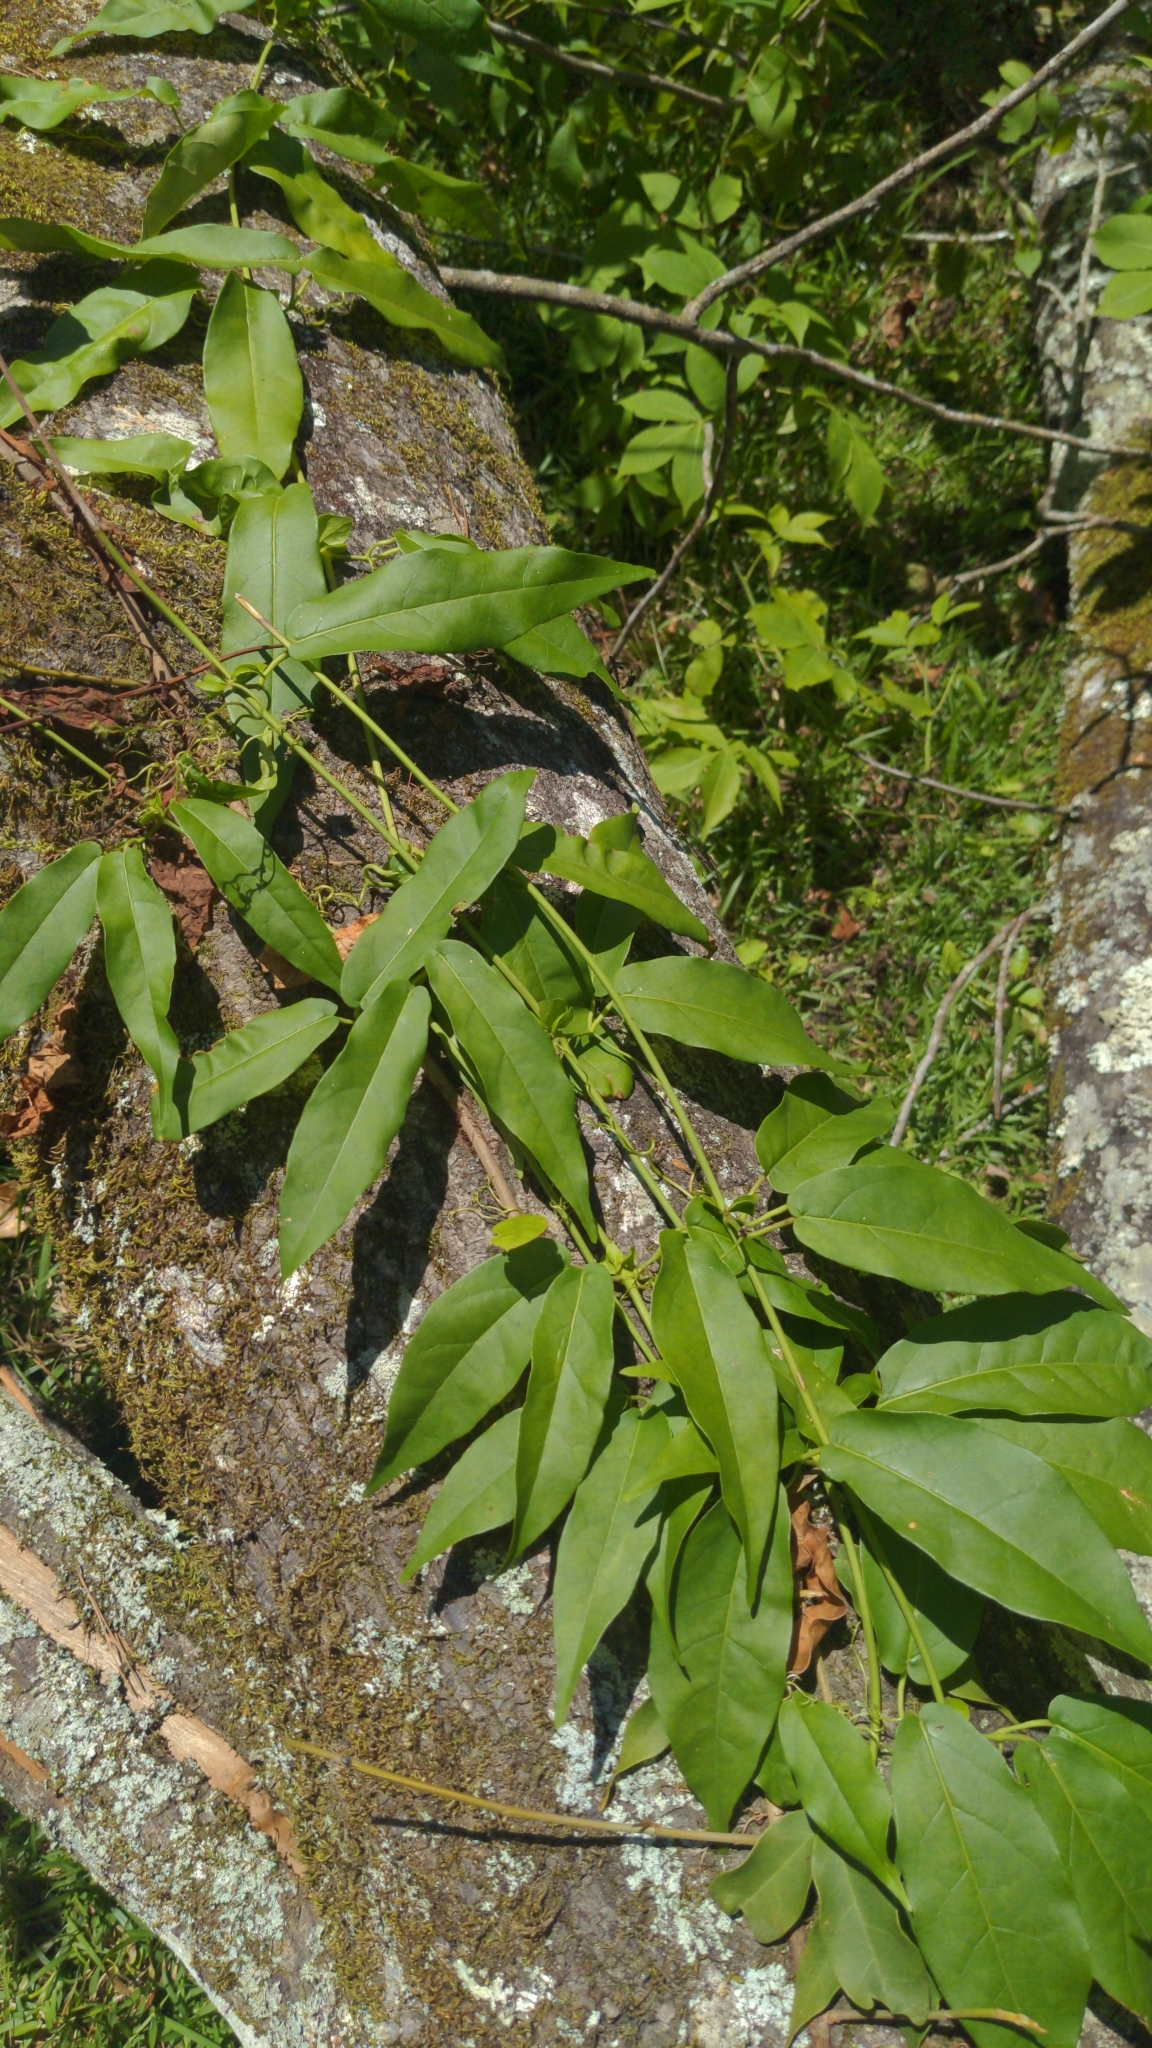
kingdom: Plantae
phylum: Tracheophyta
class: Magnoliopsida
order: Lamiales
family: Bignoniaceae
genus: Bignonia
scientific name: Bignonia capreolata
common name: Crossvine
